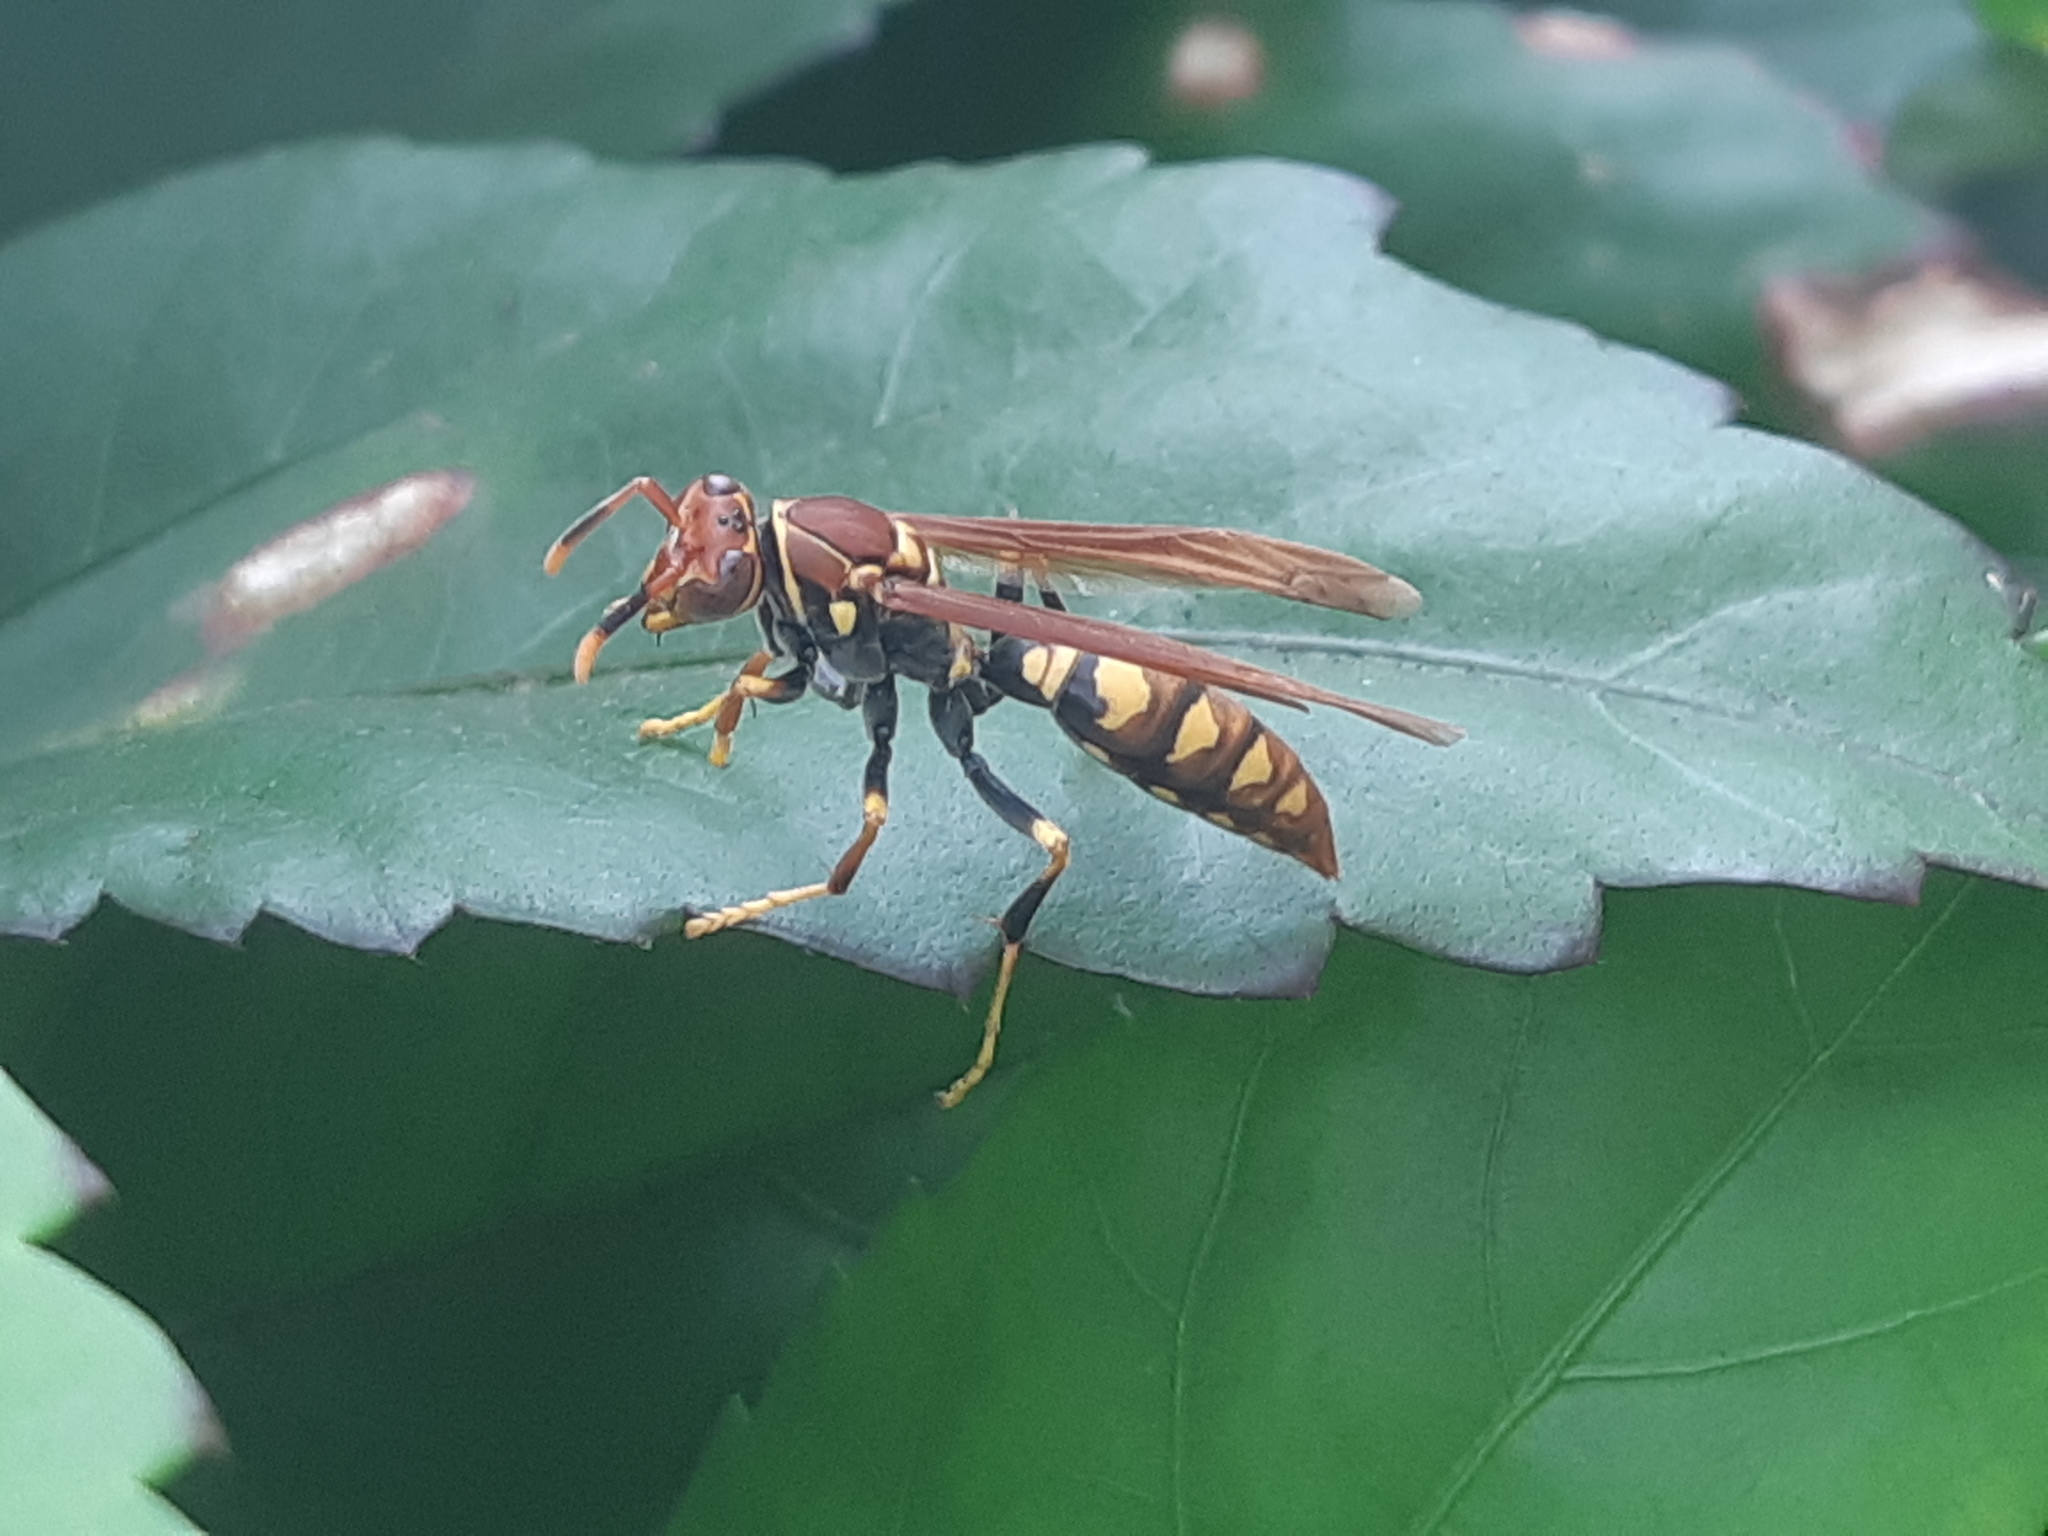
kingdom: Animalia
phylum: Arthropoda
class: Insecta
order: Hymenoptera
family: Eumenidae
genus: Polistes
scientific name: Polistes versicolor
